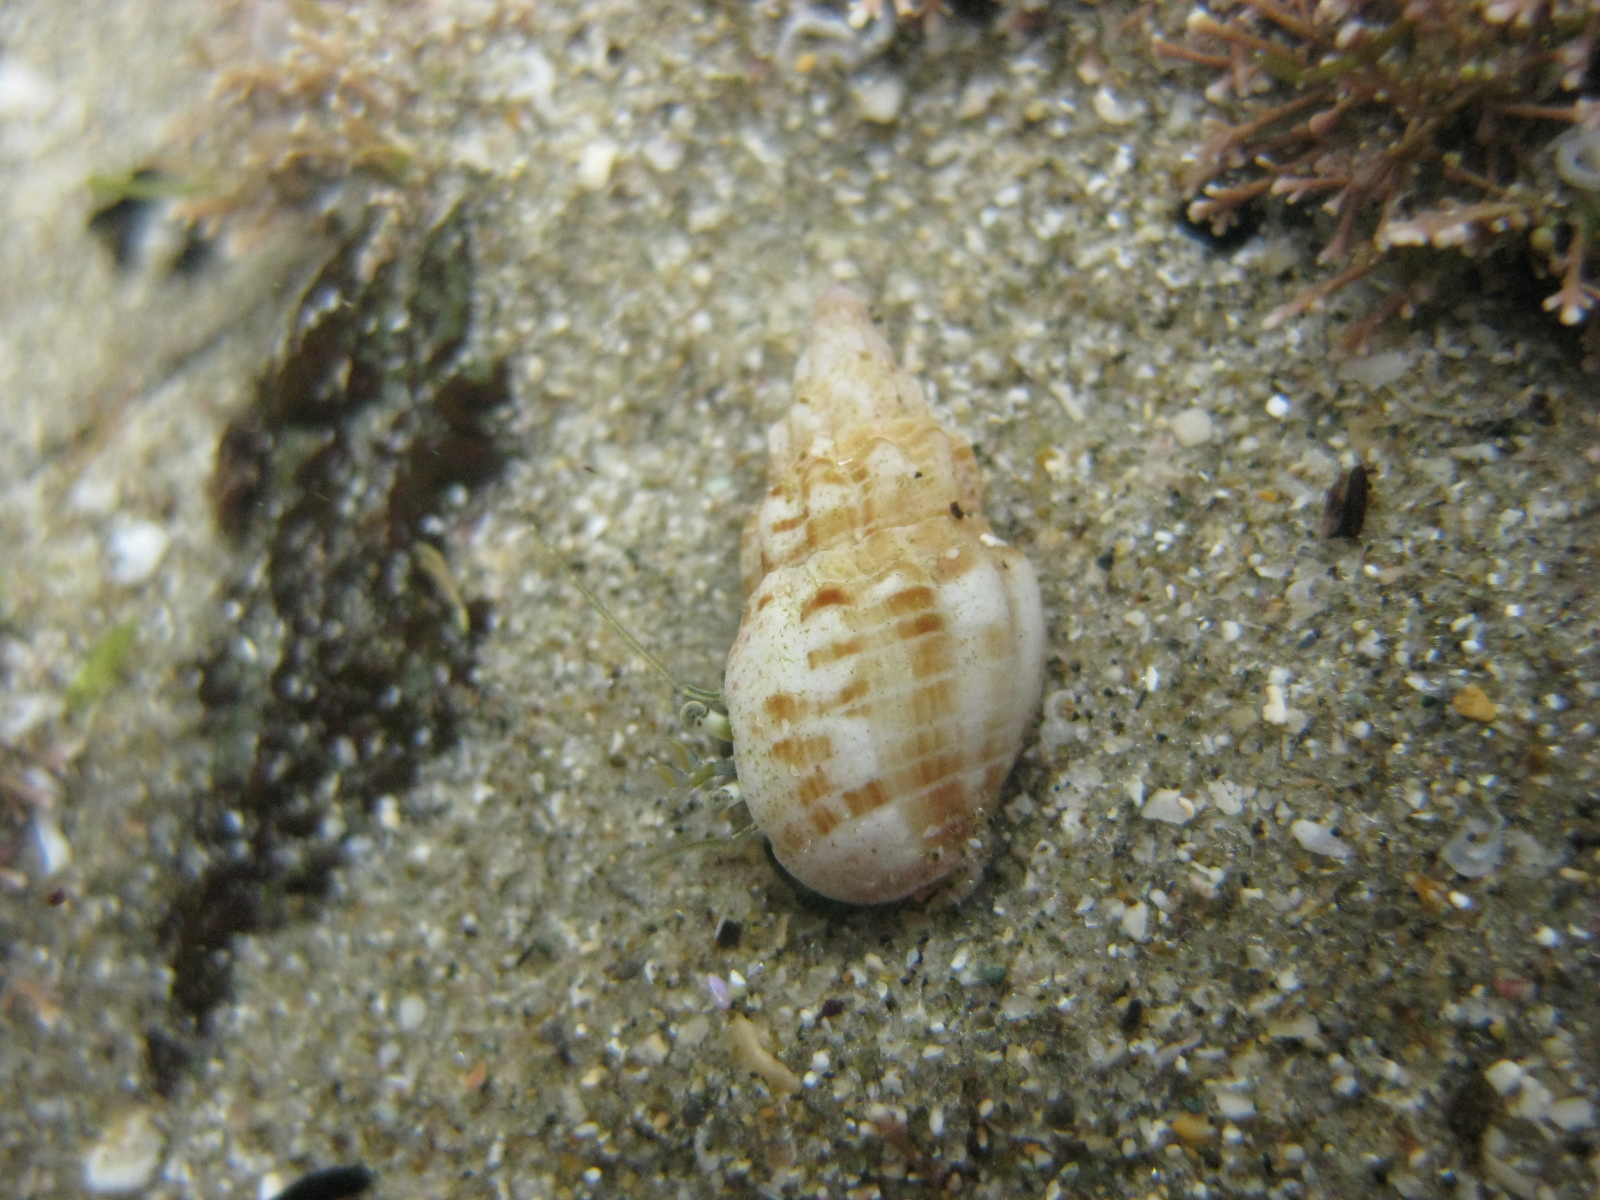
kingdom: Animalia
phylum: Mollusca
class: Gastropoda
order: Neogastropoda
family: Cominellidae
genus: Cominella
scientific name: Cominella quoyana
